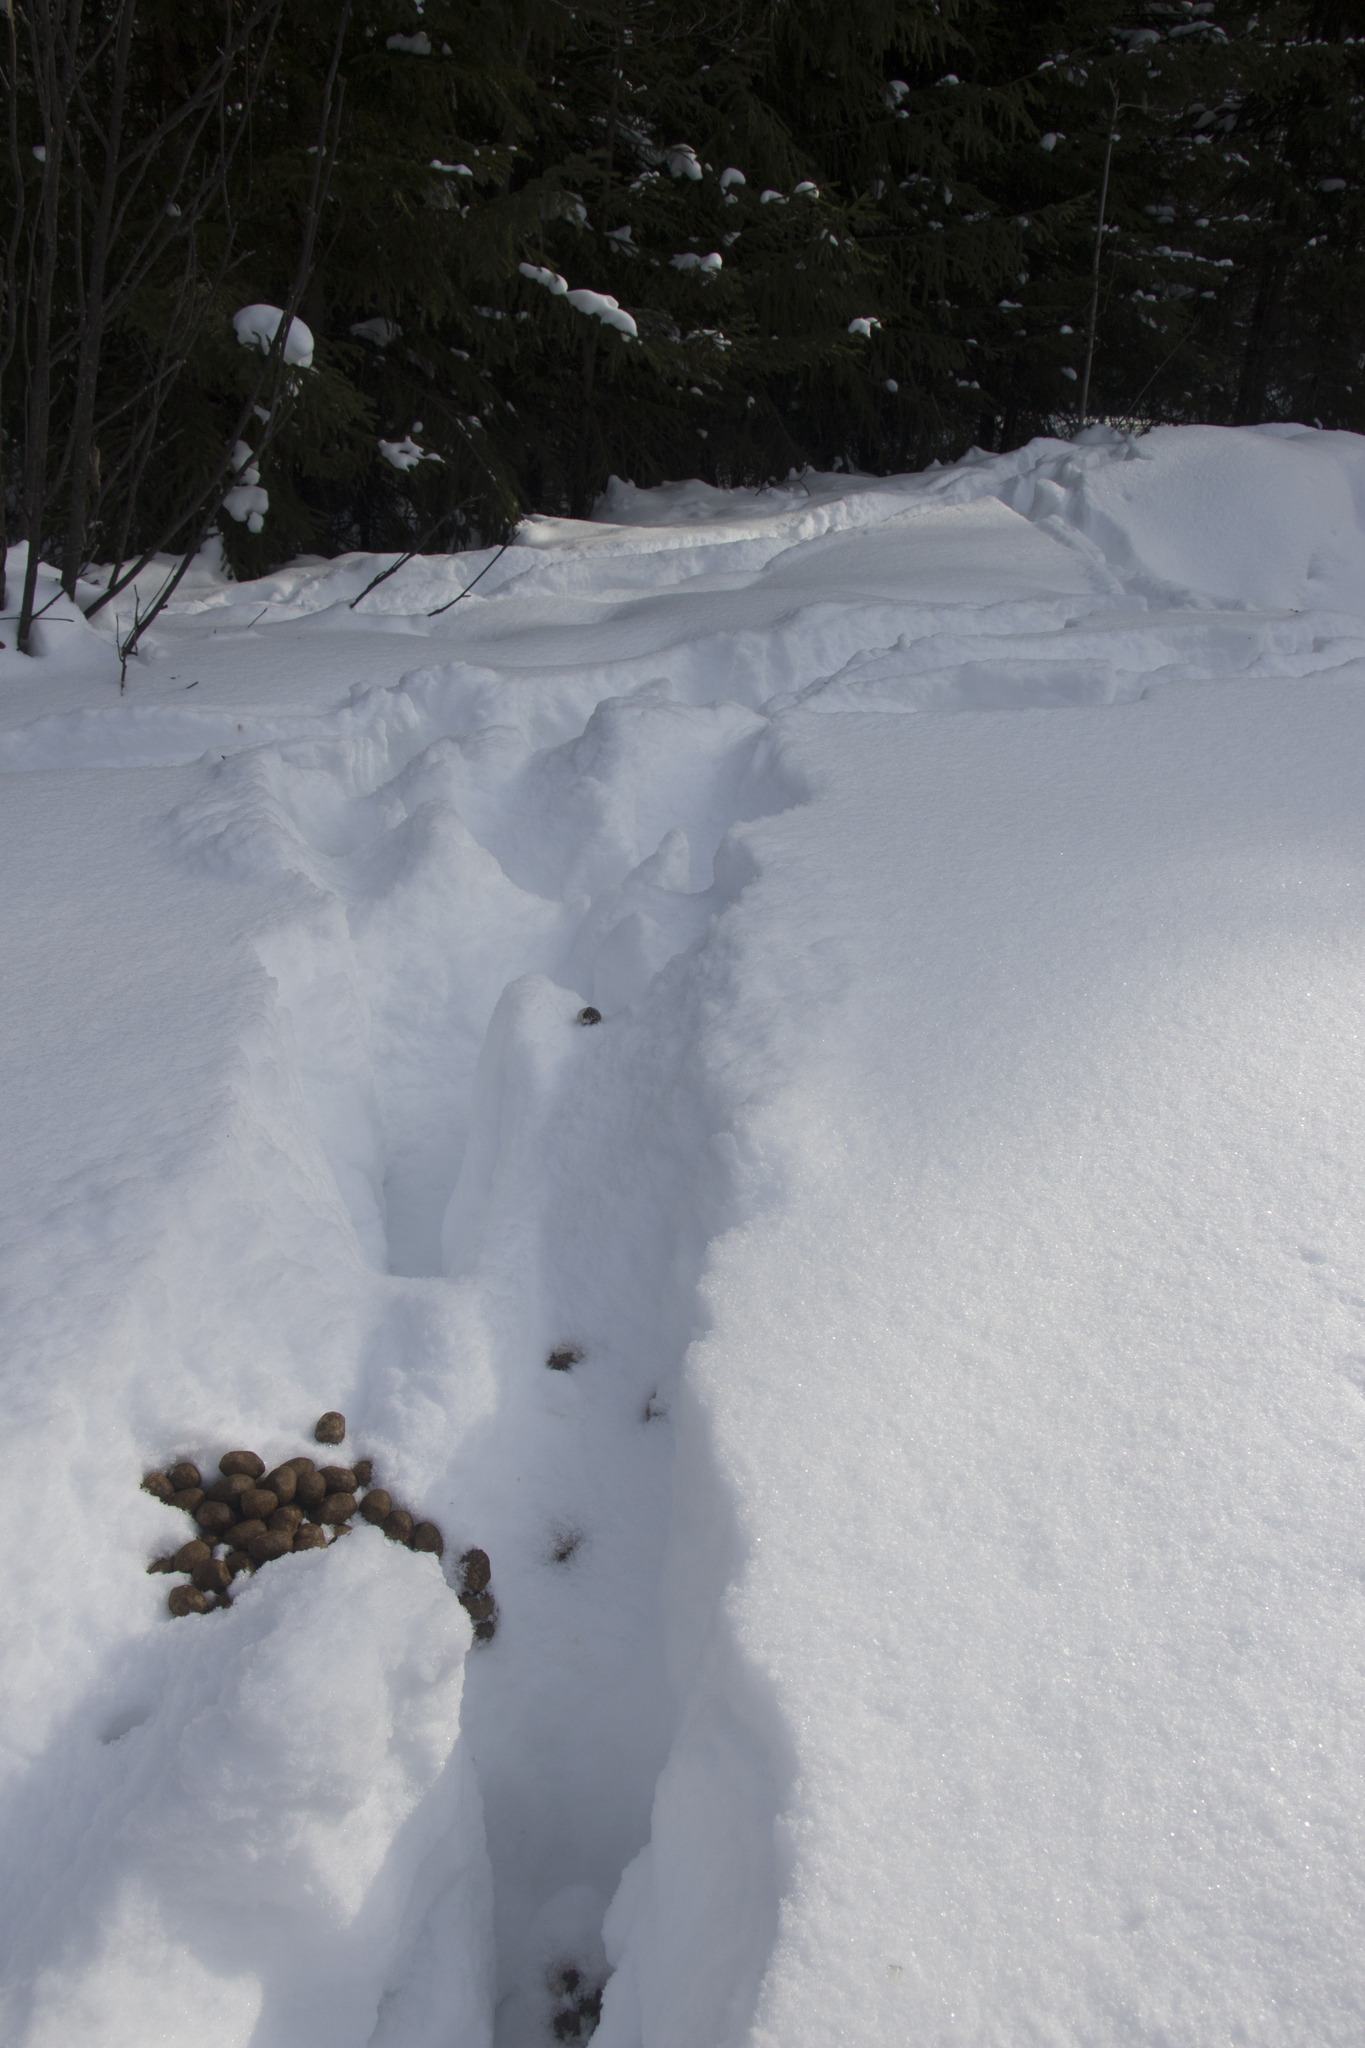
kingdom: Animalia
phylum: Chordata
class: Mammalia
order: Artiodactyla
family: Cervidae
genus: Alces
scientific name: Alces alces
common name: Moose
